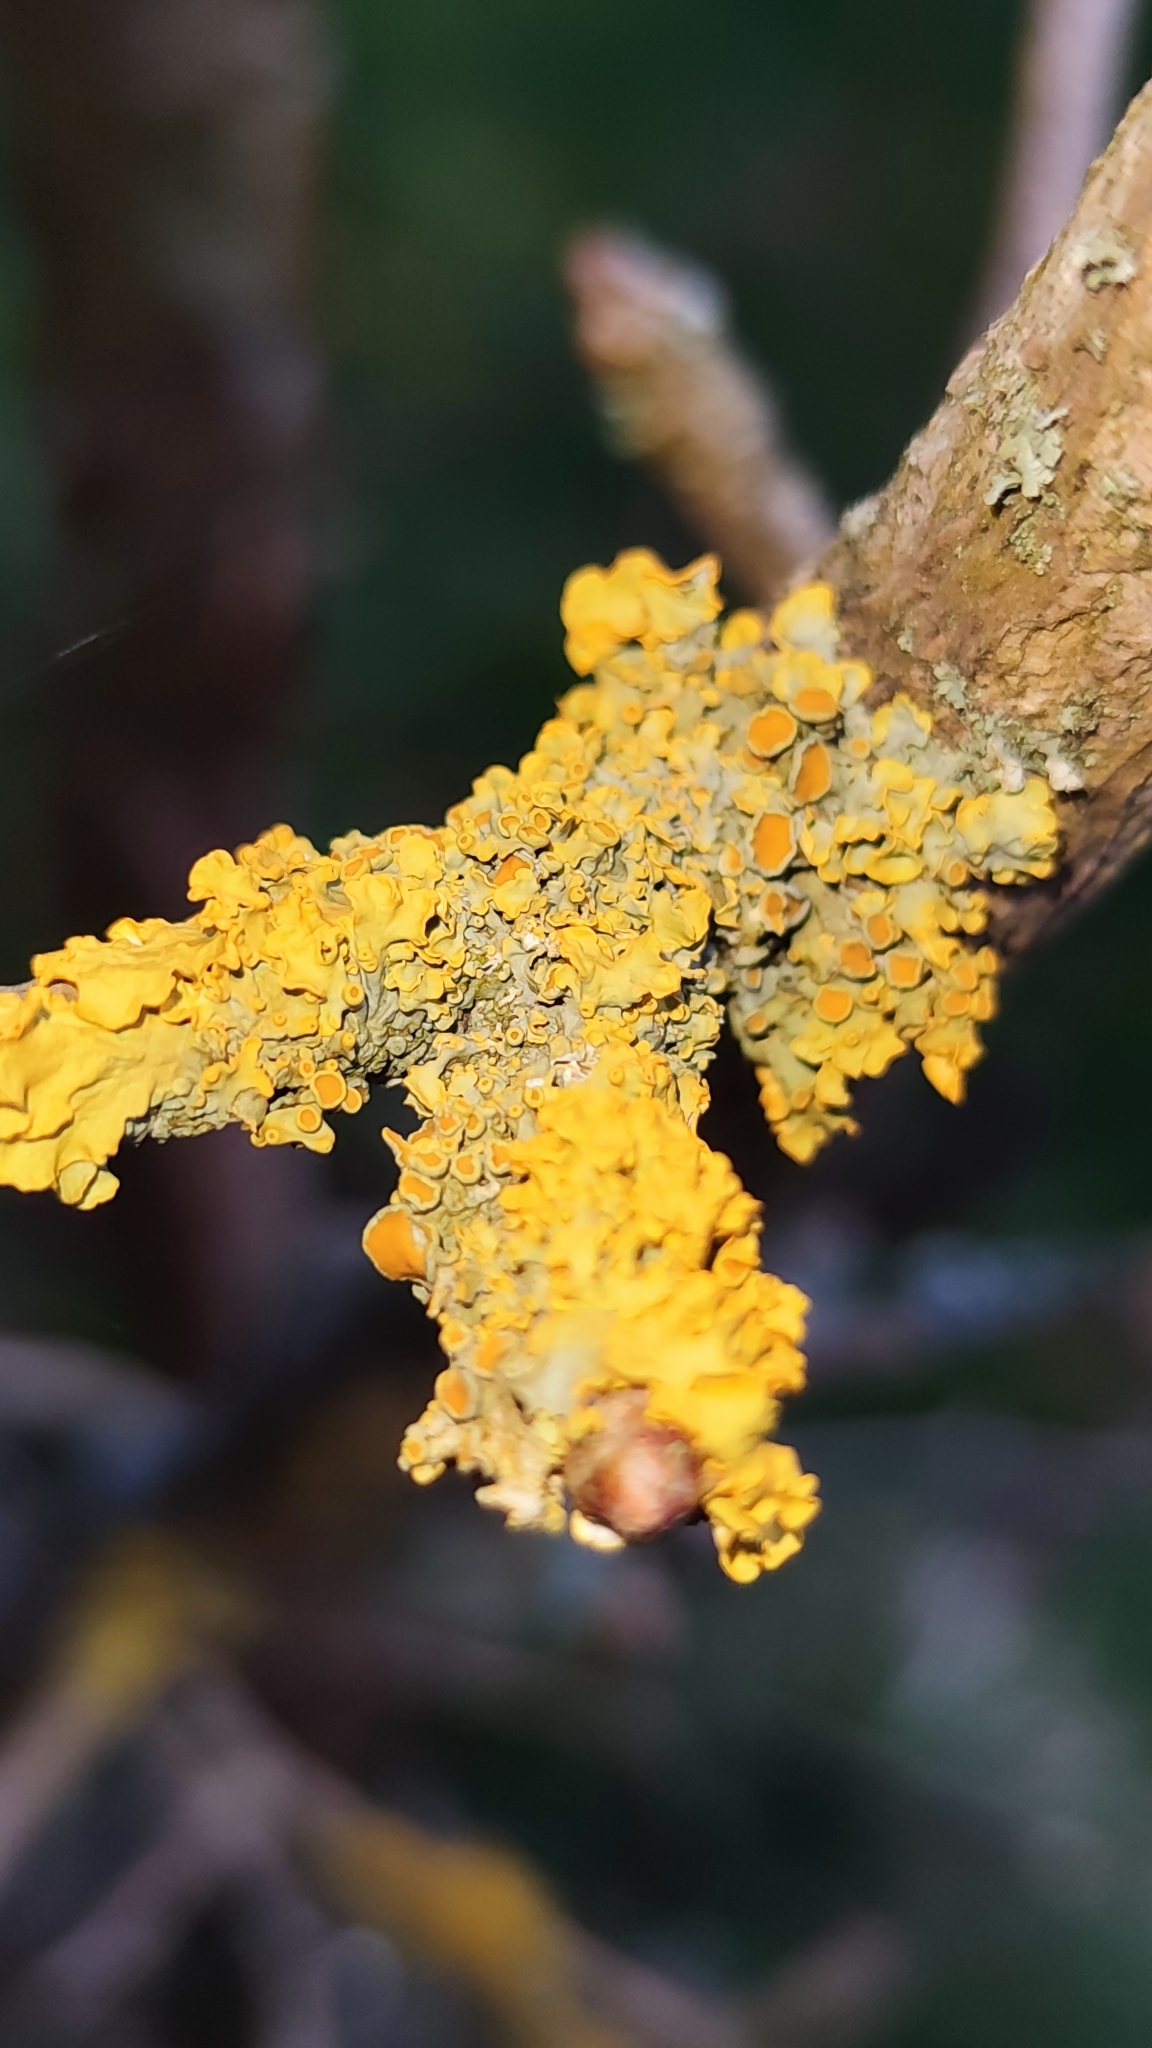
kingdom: Fungi
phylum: Ascomycota
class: Lecanoromycetes
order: Teloschistales
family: Teloschistaceae
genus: Xanthoria
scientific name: Xanthoria parietina
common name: Common orange lichen
